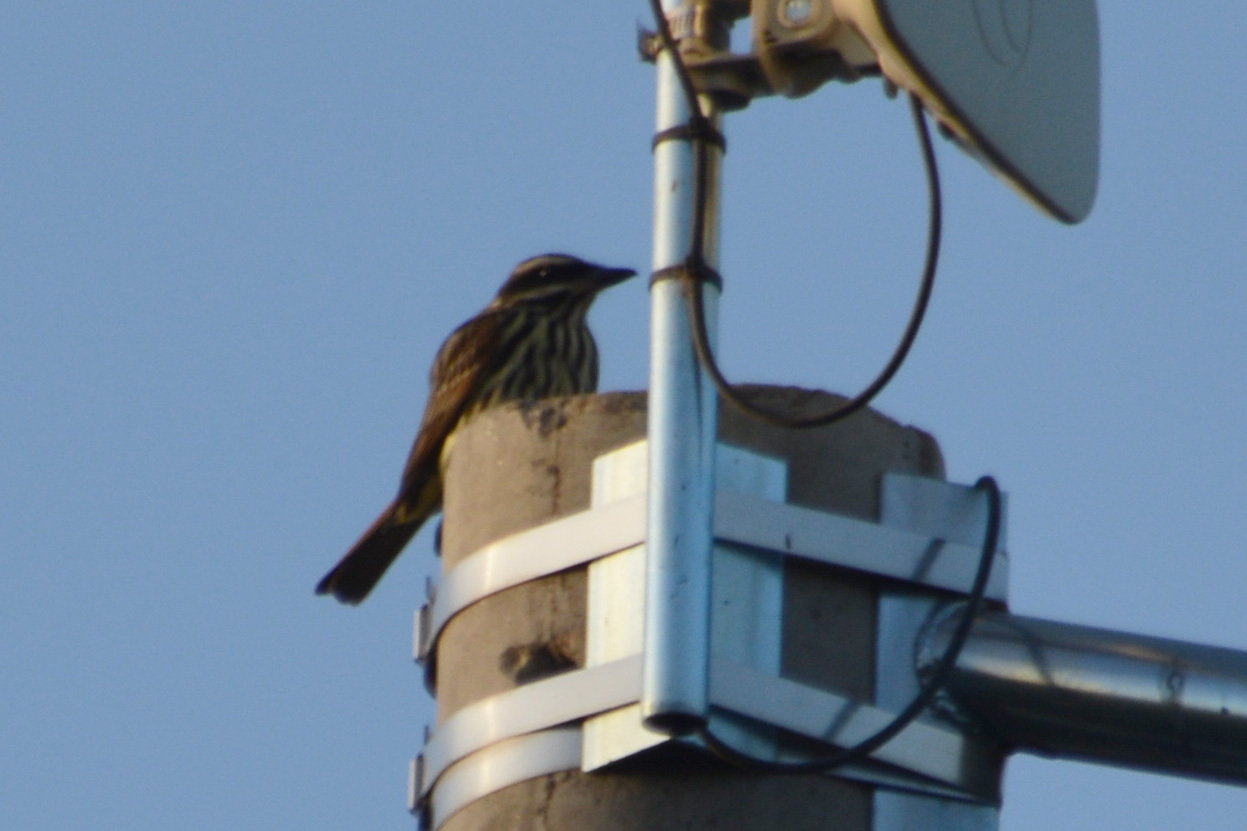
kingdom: Animalia
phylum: Chordata
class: Aves
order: Passeriformes
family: Tyrannidae
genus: Myiodynastes
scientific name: Myiodynastes maculatus
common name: Streaked flycatcher
